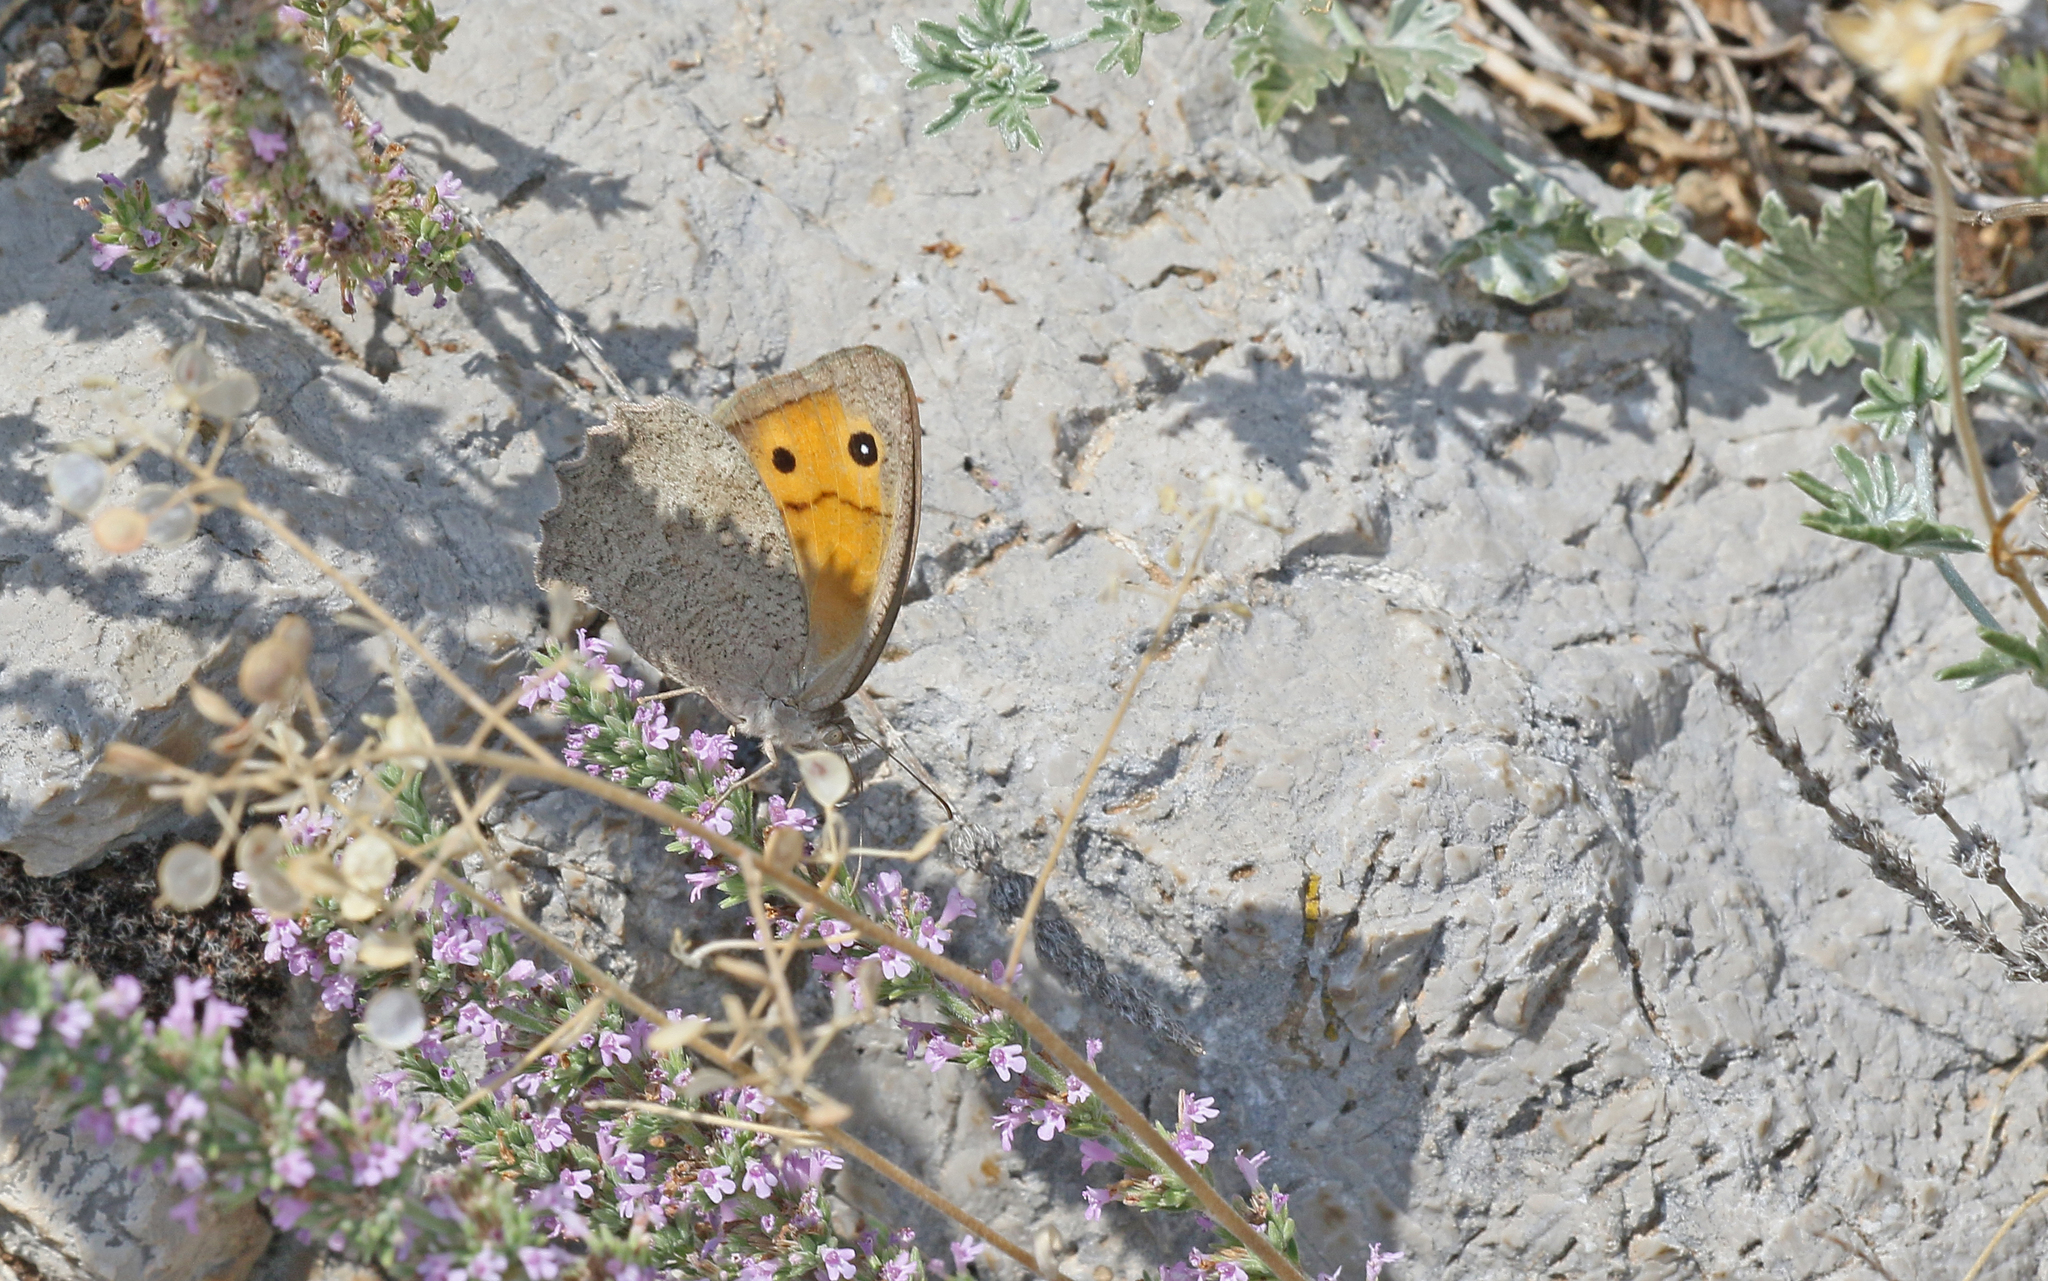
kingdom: Animalia
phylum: Arthropoda
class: Insecta
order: Lepidoptera
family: Nymphalidae
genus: Hyponephele
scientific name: Hyponephele lupinus
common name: Oriental meadow brown
